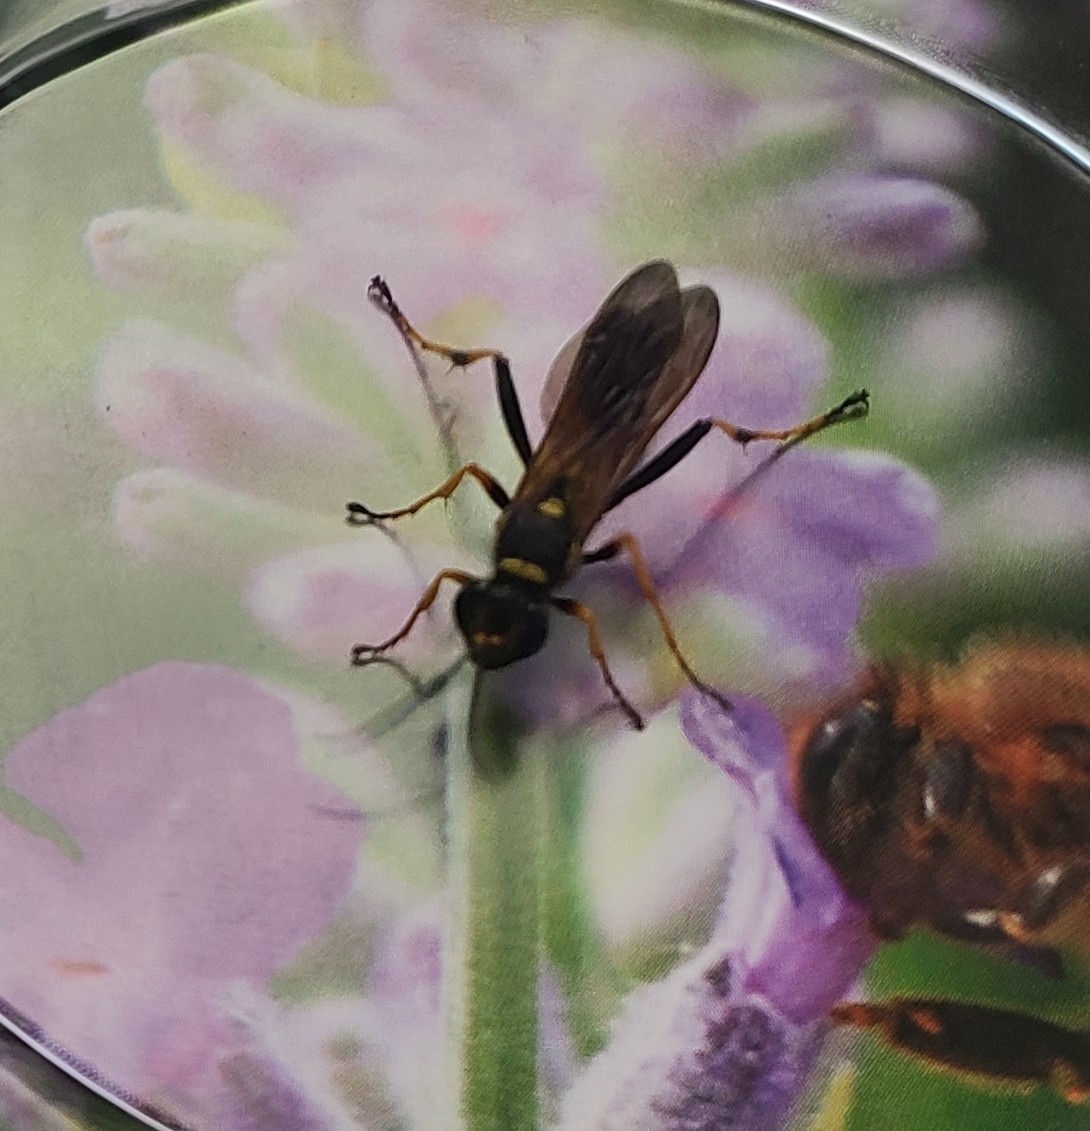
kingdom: Animalia
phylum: Arthropoda
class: Insecta
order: Hymenoptera
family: Sphecidae
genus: Sceliphron
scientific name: Sceliphron caementarium
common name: Mud dauber
